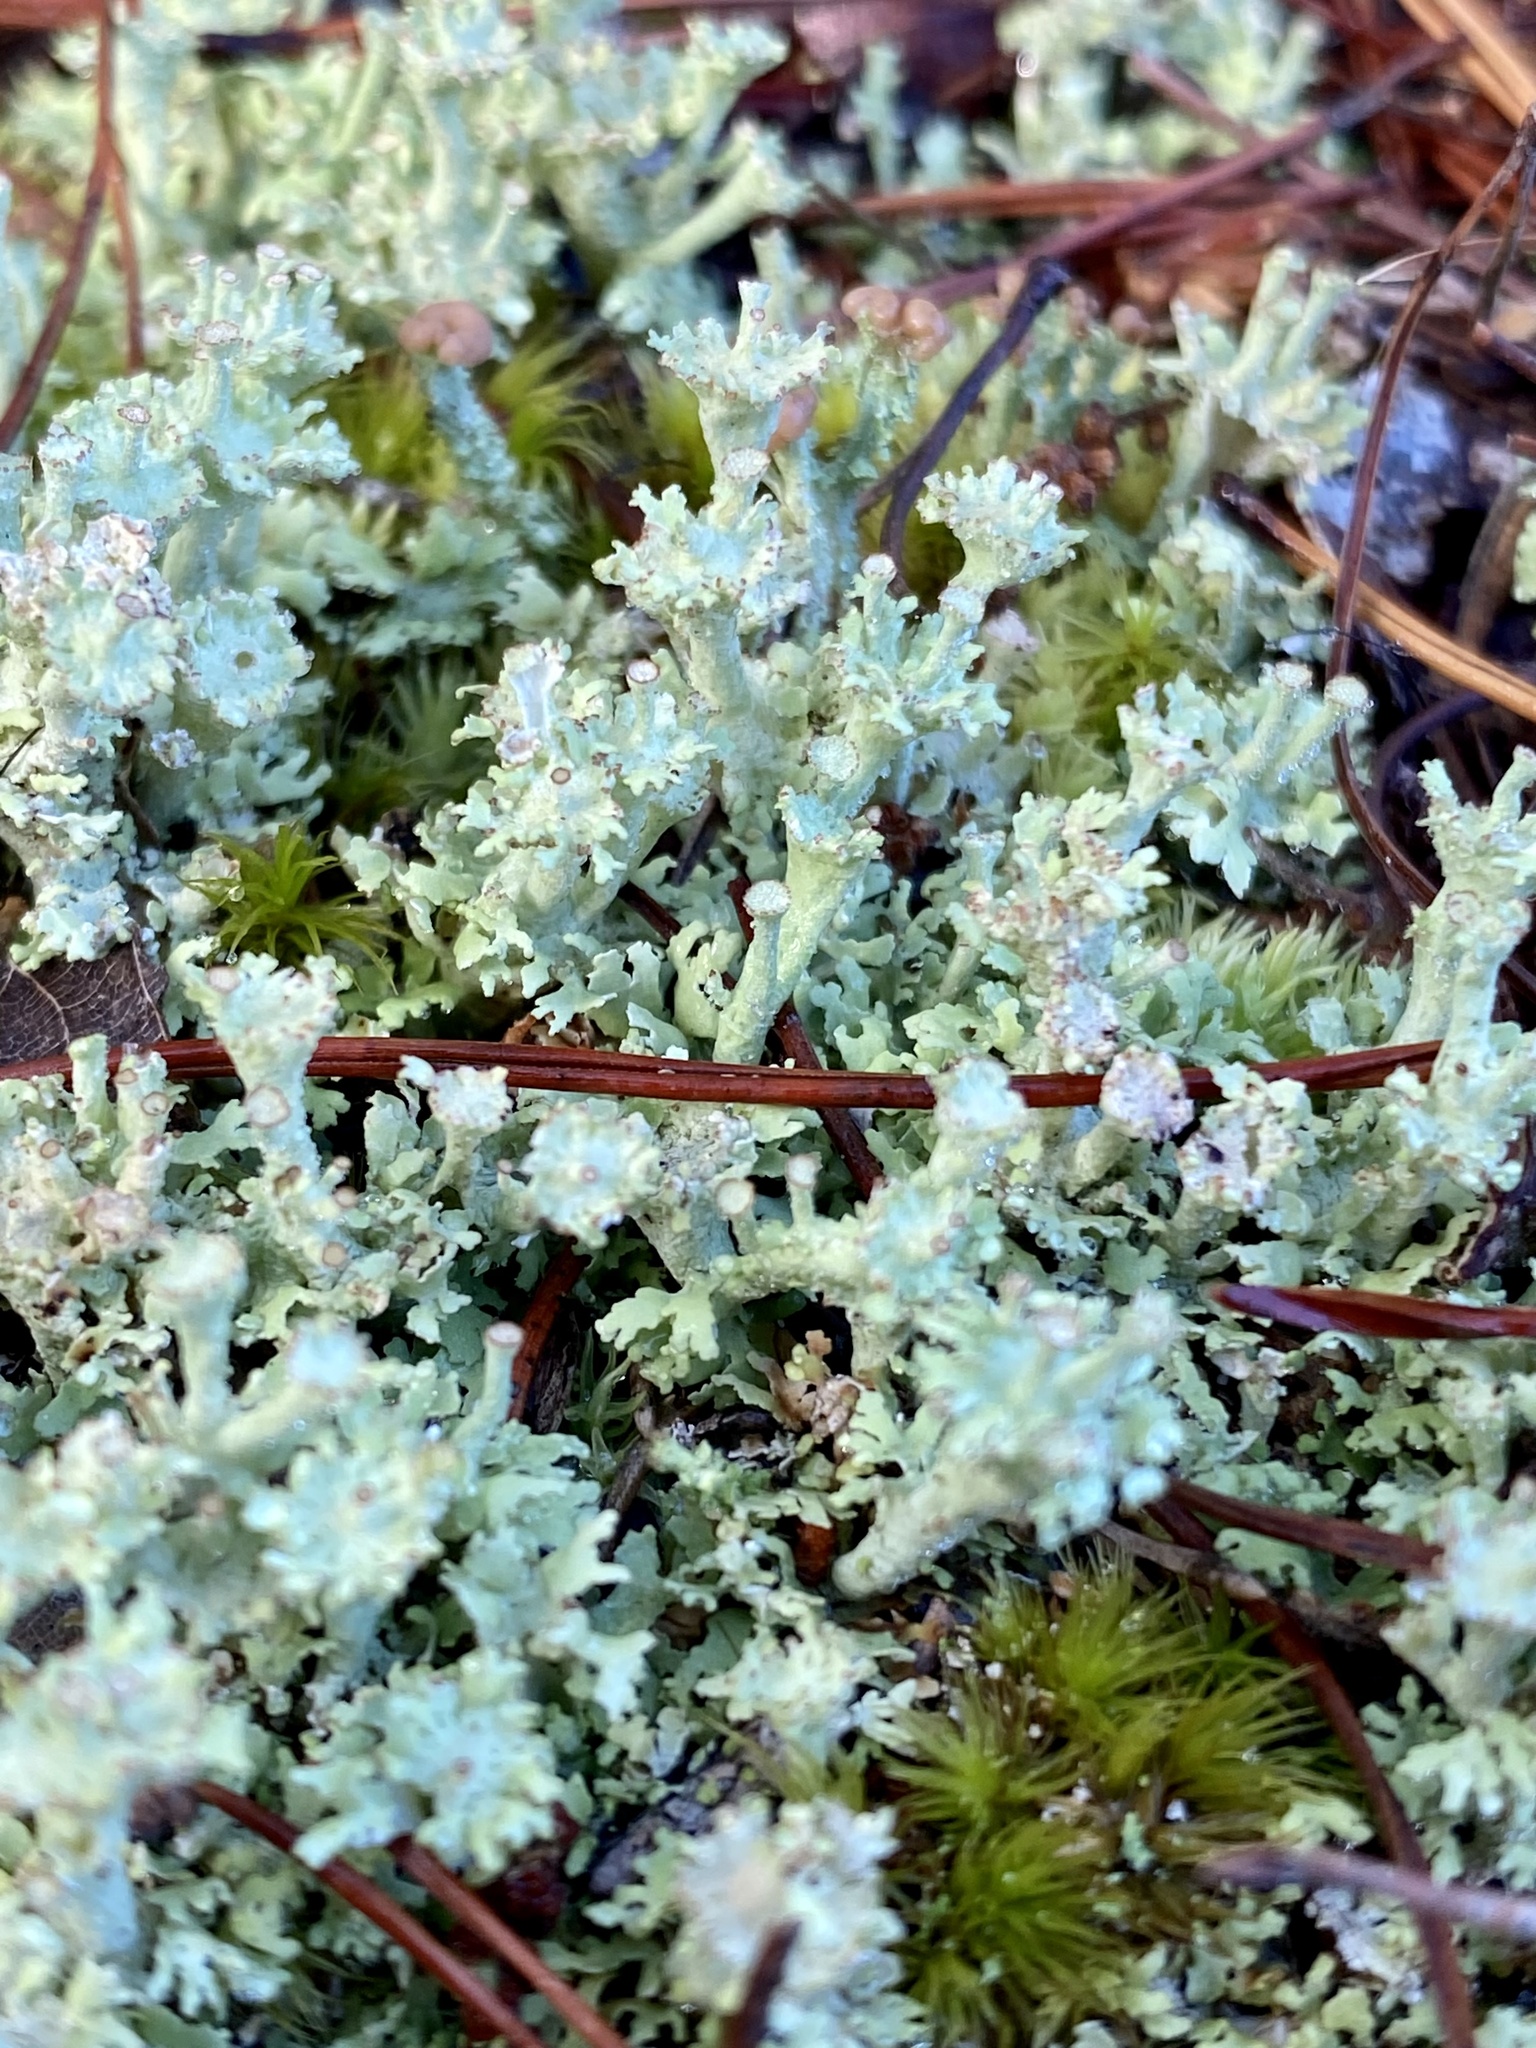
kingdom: Fungi
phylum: Ascomycota
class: Lecanoromycetes
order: Lecanorales
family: Cladoniaceae
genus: Cladonia
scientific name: Cladonia rappii
